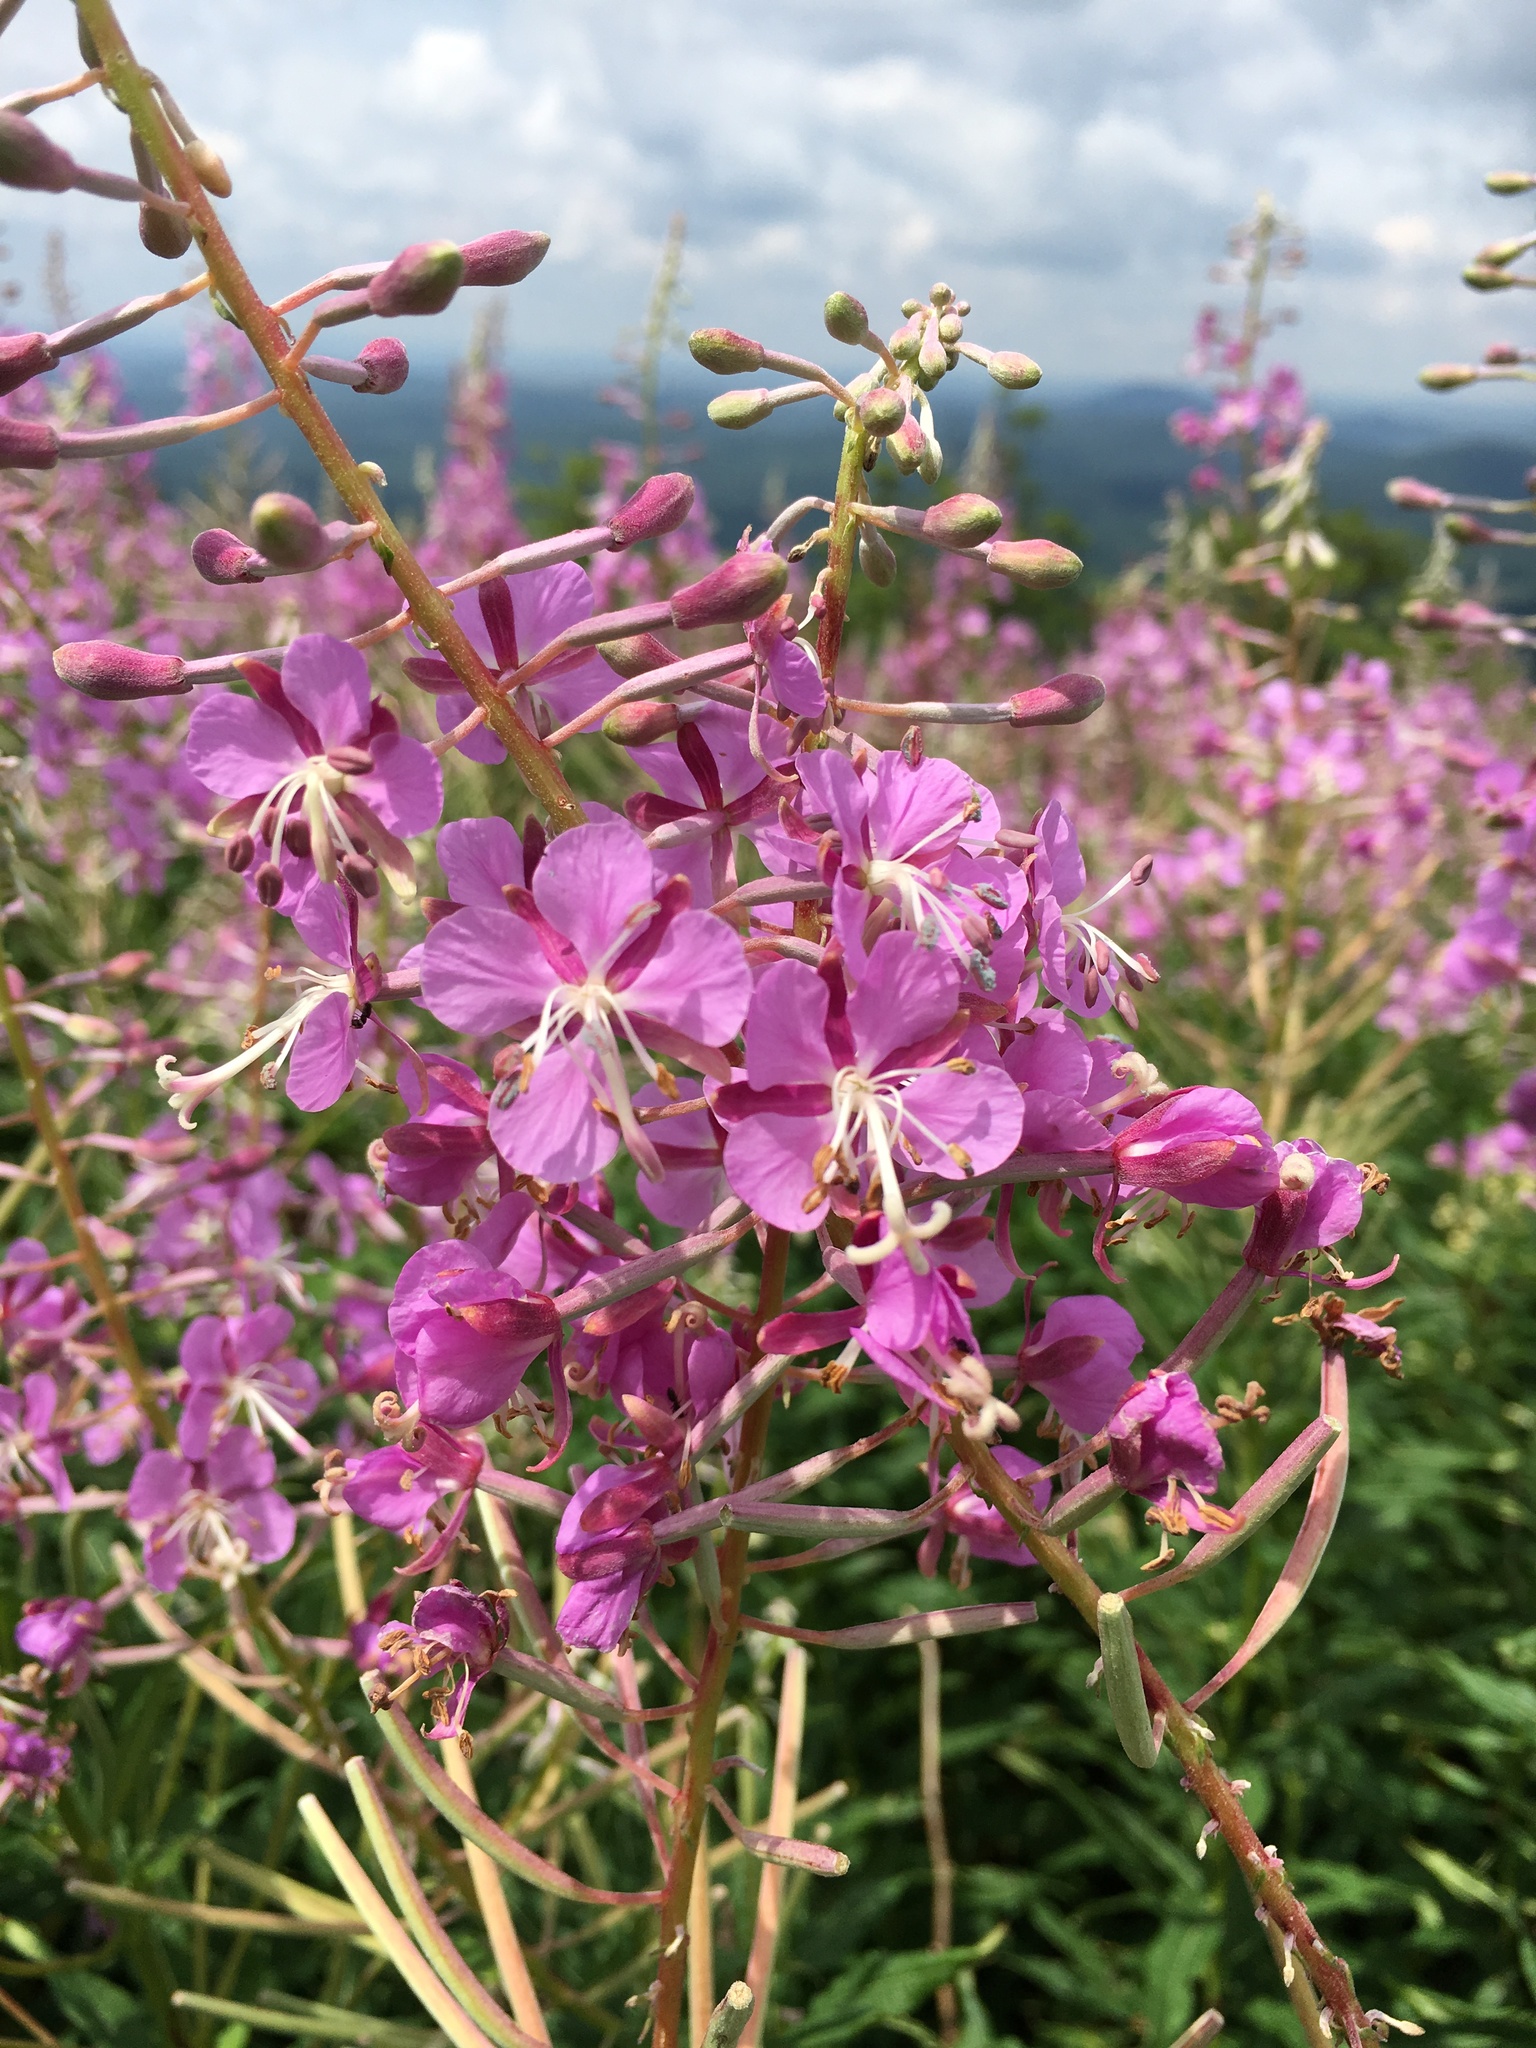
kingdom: Plantae
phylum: Tracheophyta
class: Magnoliopsida
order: Myrtales
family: Onagraceae
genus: Chamaenerion
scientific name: Chamaenerion angustifolium
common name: Fireweed
